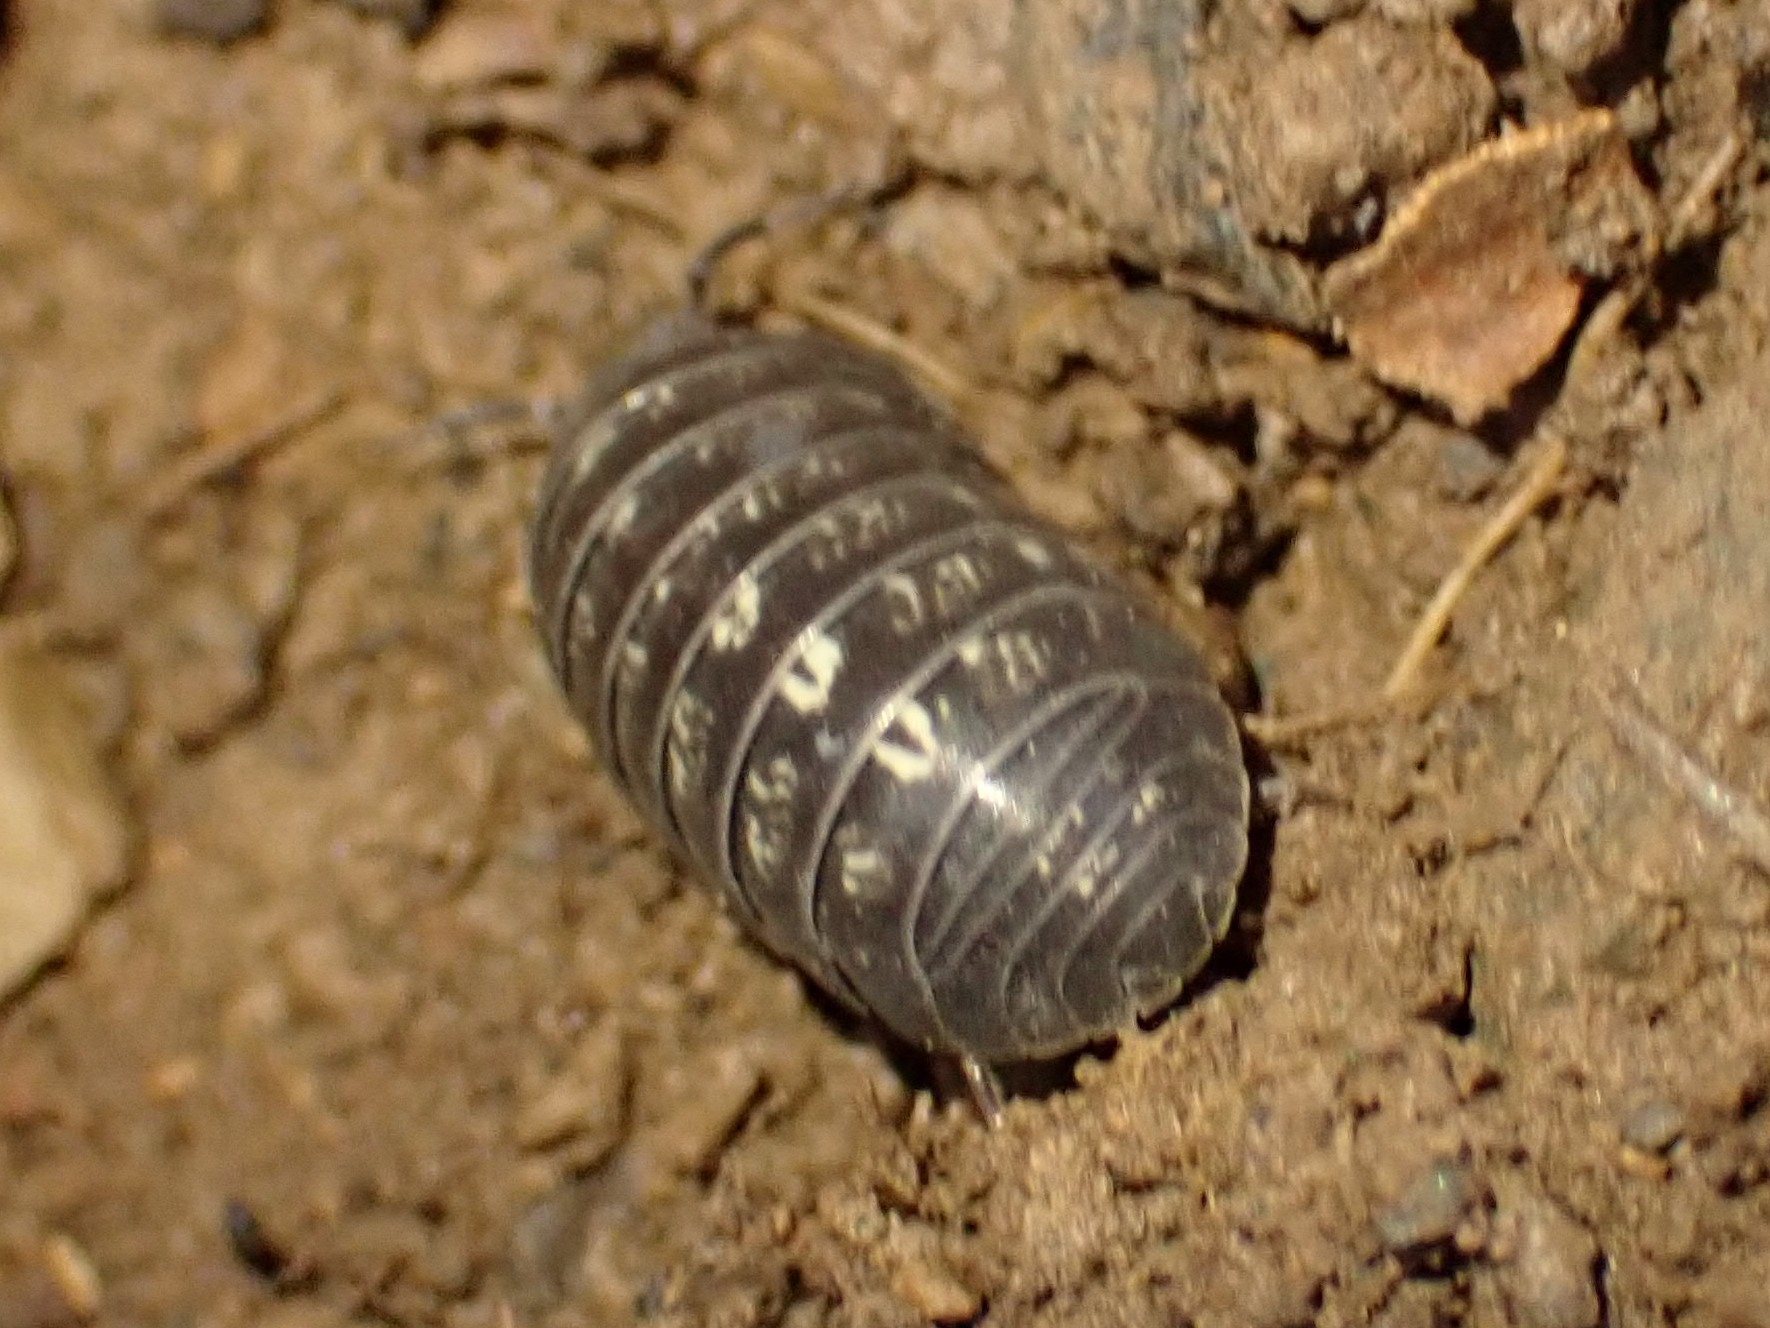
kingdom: Animalia
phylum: Arthropoda
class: Malacostraca
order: Isopoda
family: Armadillidiidae
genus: Armadillidium
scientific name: Armadillidium vulgare
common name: Common pill woodlouse
